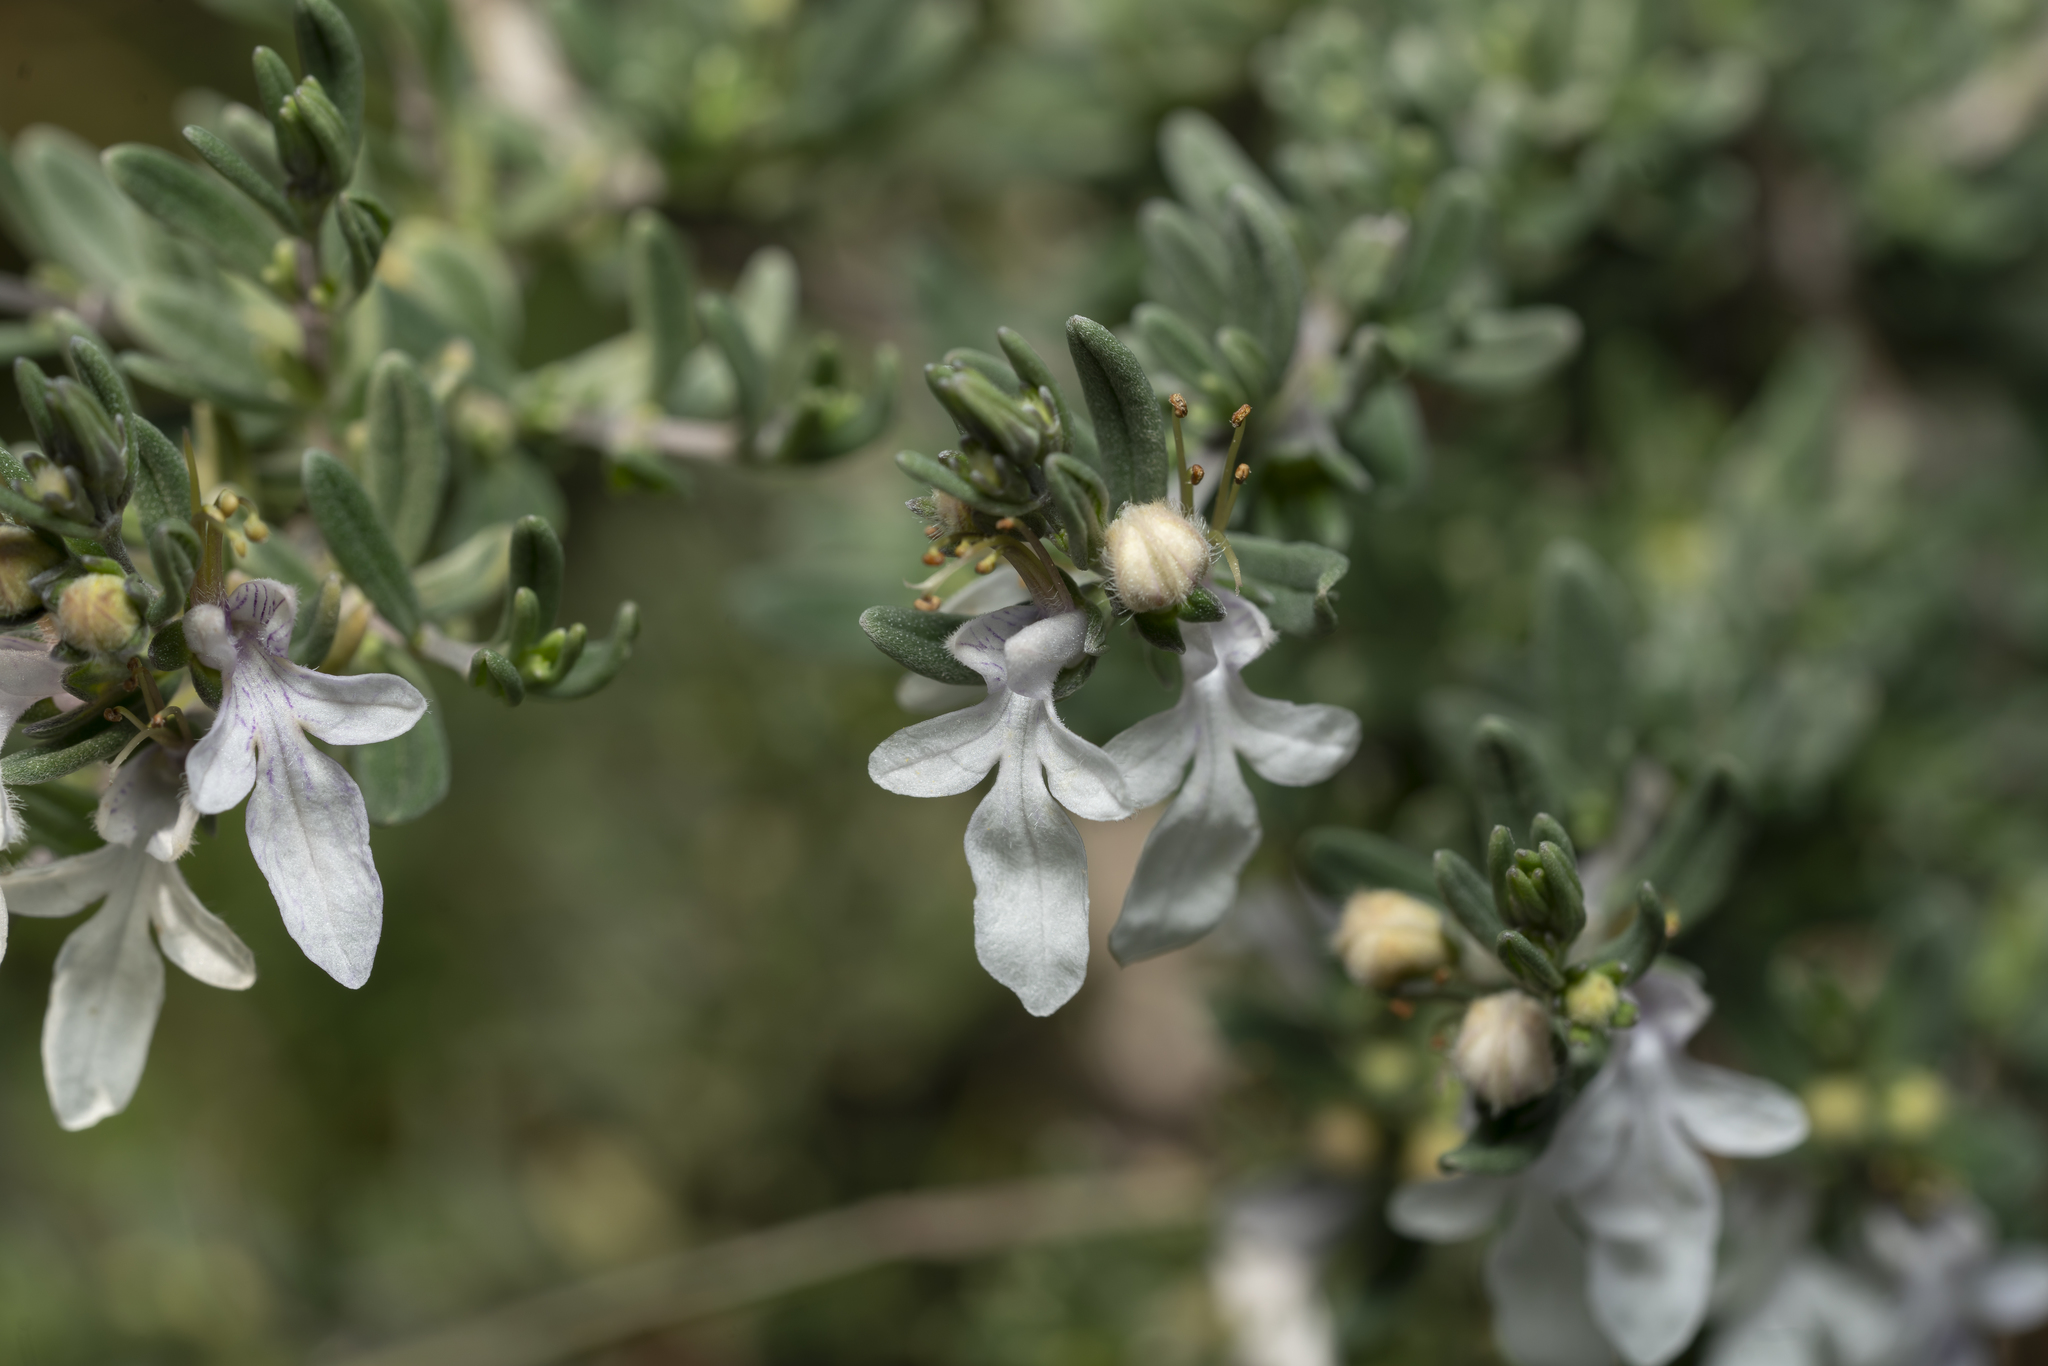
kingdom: Plantae
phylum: Tracheophyta
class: Magnoliopsida
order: Lamiales
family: Lamiaceae
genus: Teucrium
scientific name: Teucrium brevifolium
